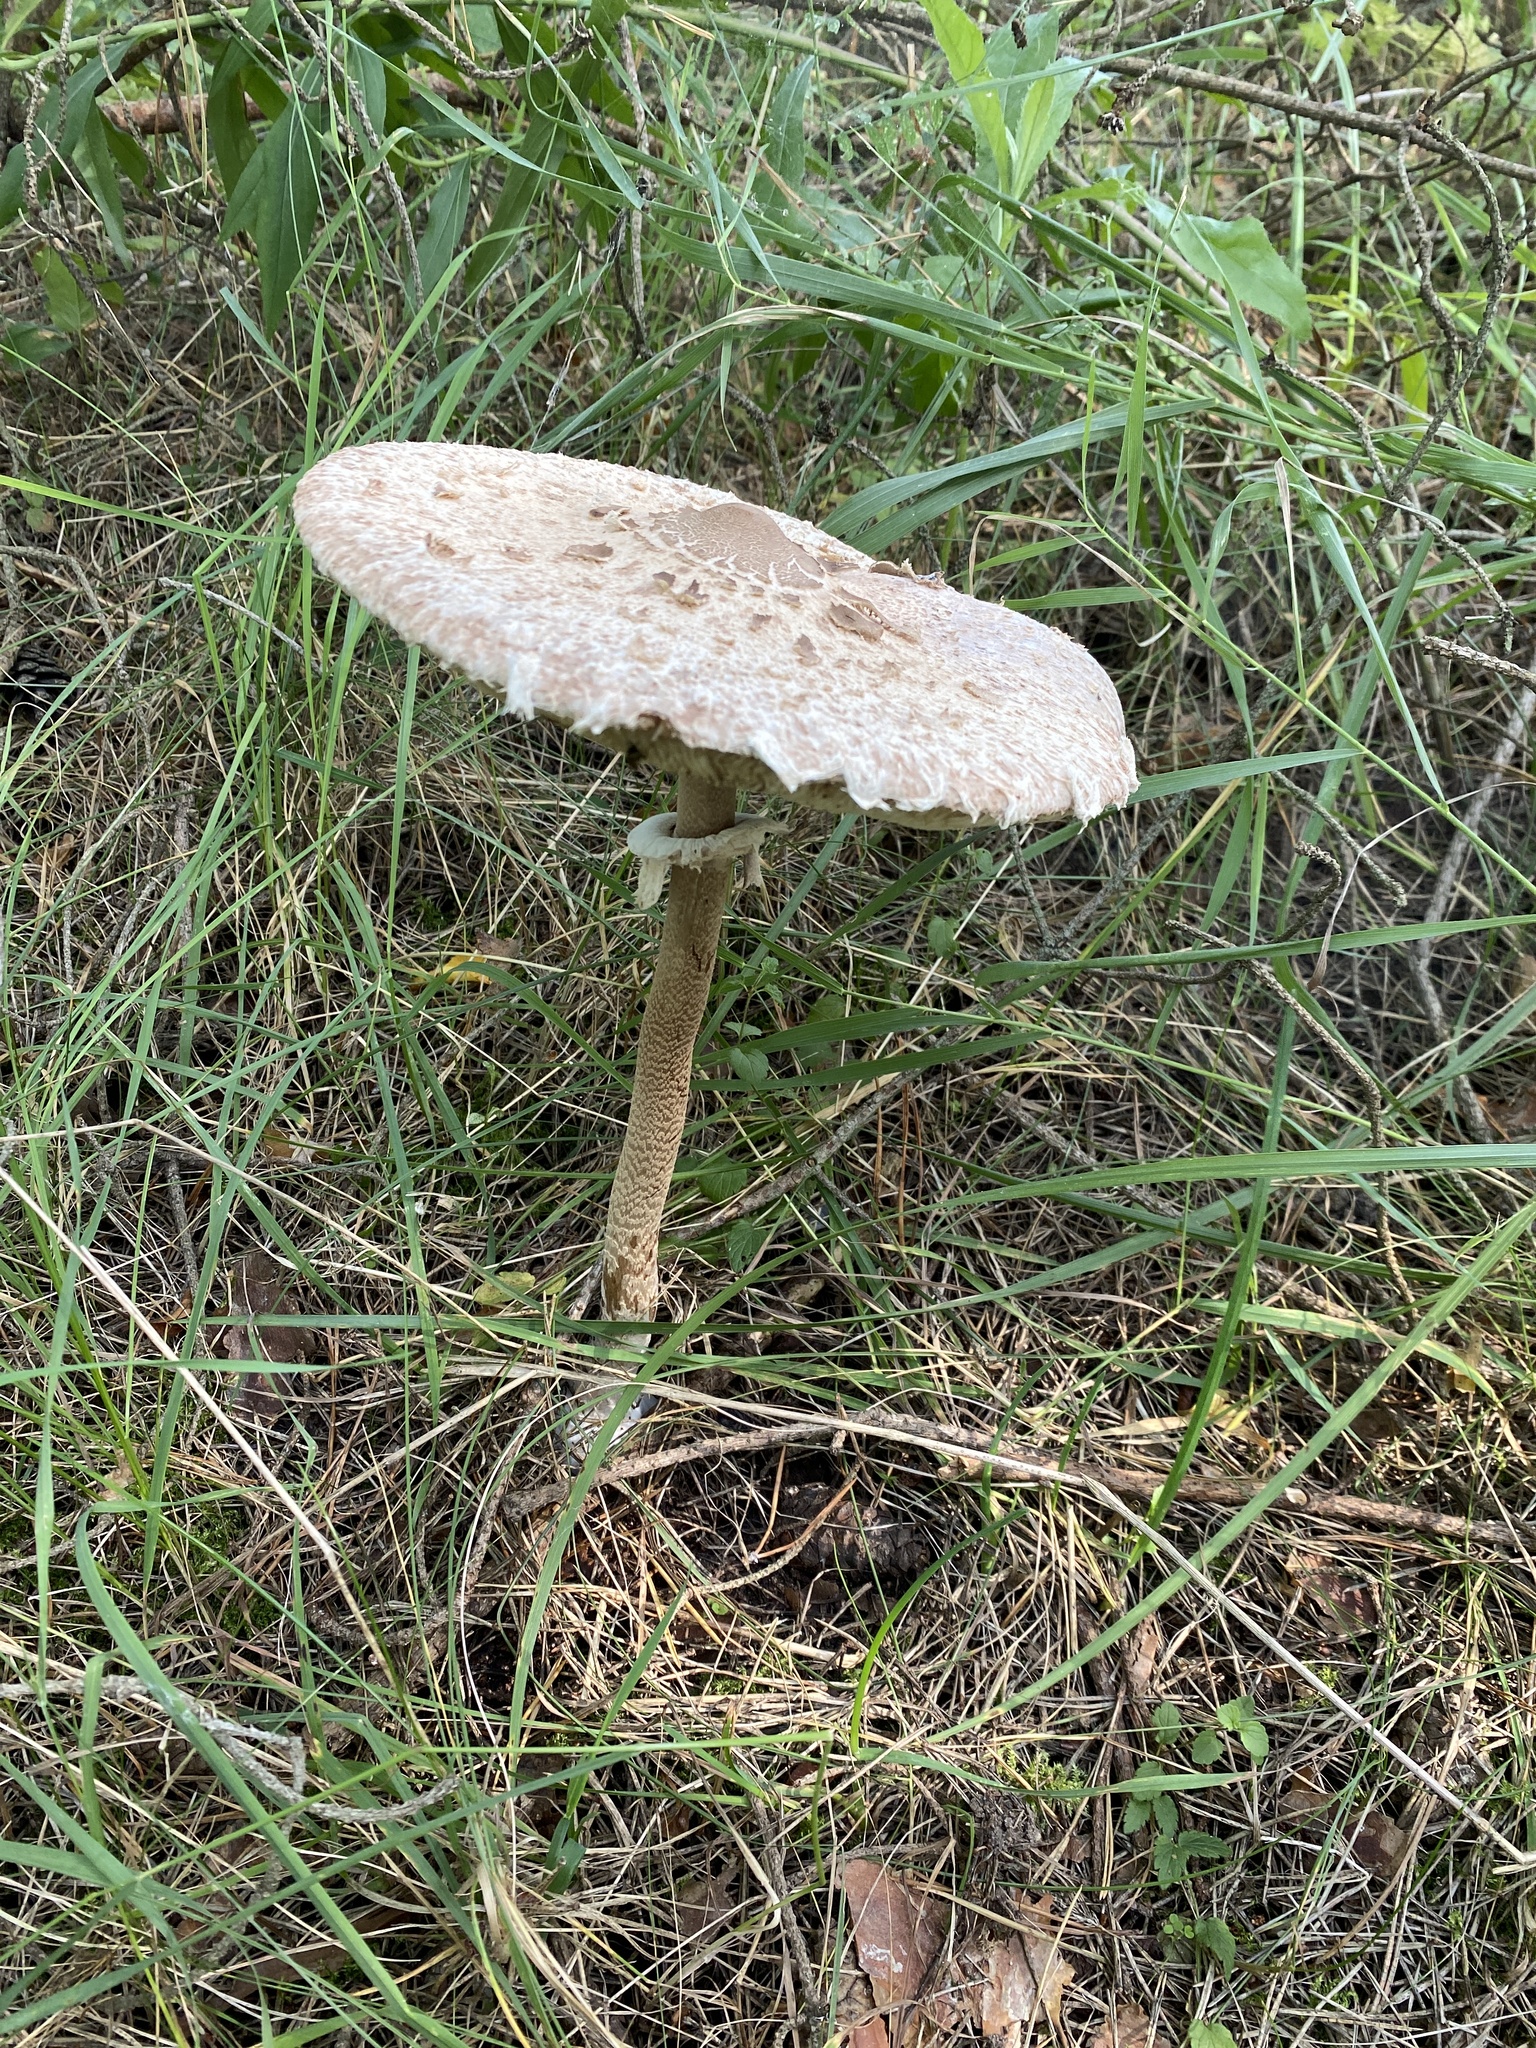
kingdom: Fungi
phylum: Basidiomycota
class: Agaricomycetes
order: Agaricales
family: Agaricaceae
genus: Macrolepiota
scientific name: Macrolepiota procera
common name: Parasol
